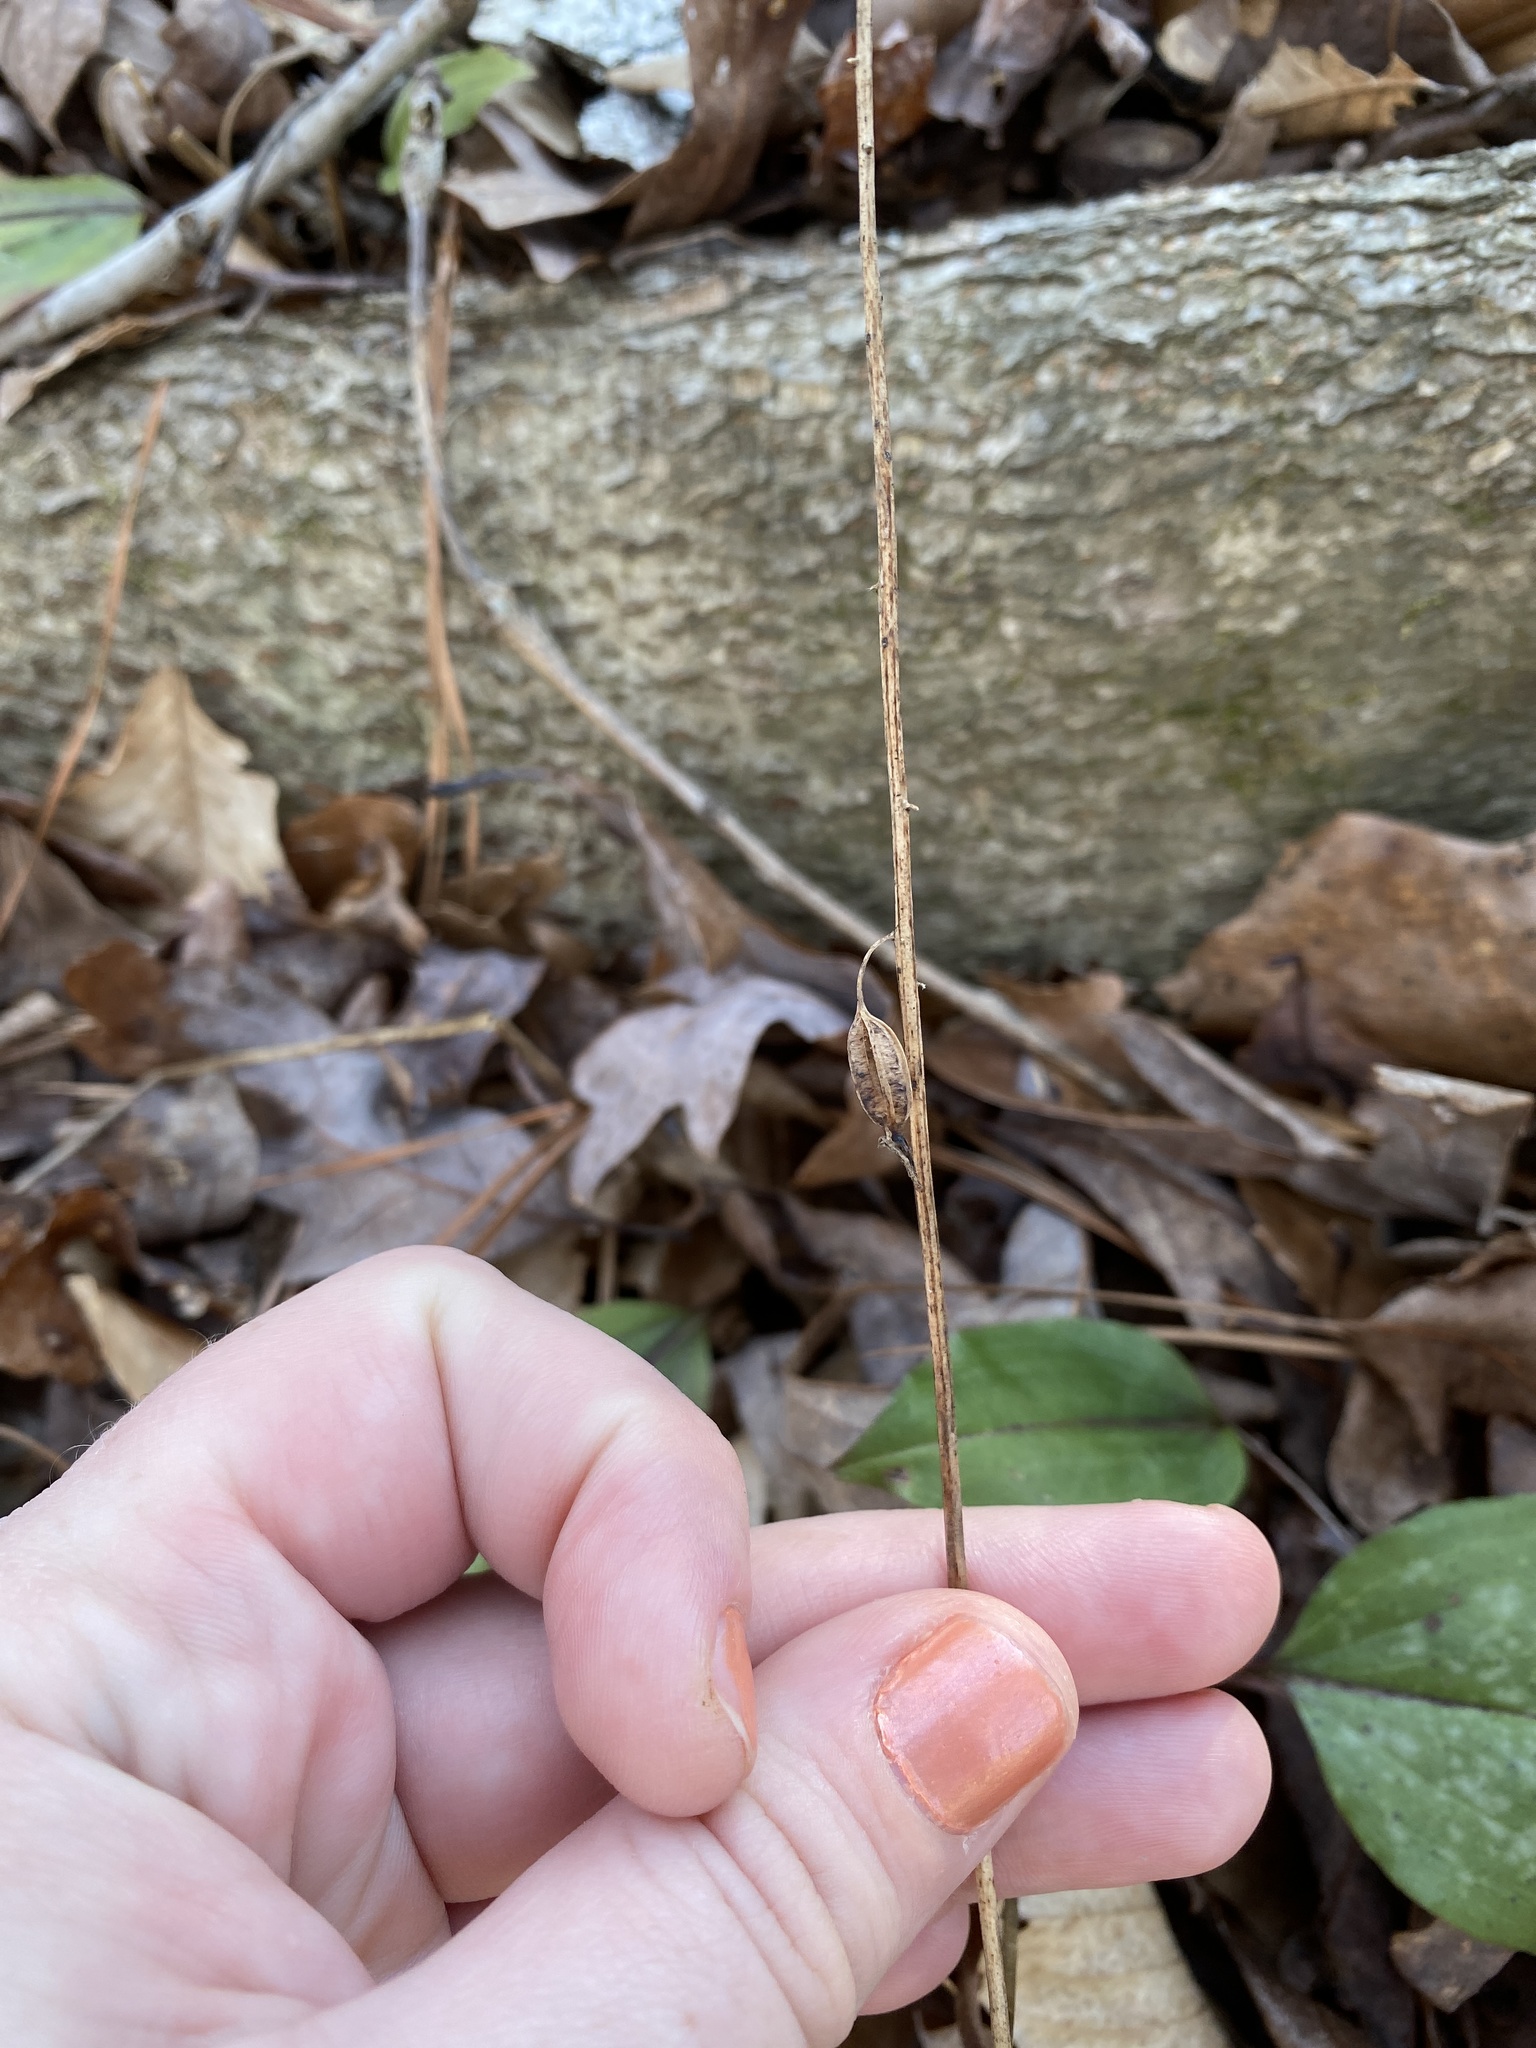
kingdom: Plantae
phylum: Tracheophyta
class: Liliopsida
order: Asparagales
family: Orchidaceae
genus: Tipularia
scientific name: Tipularia discolor
